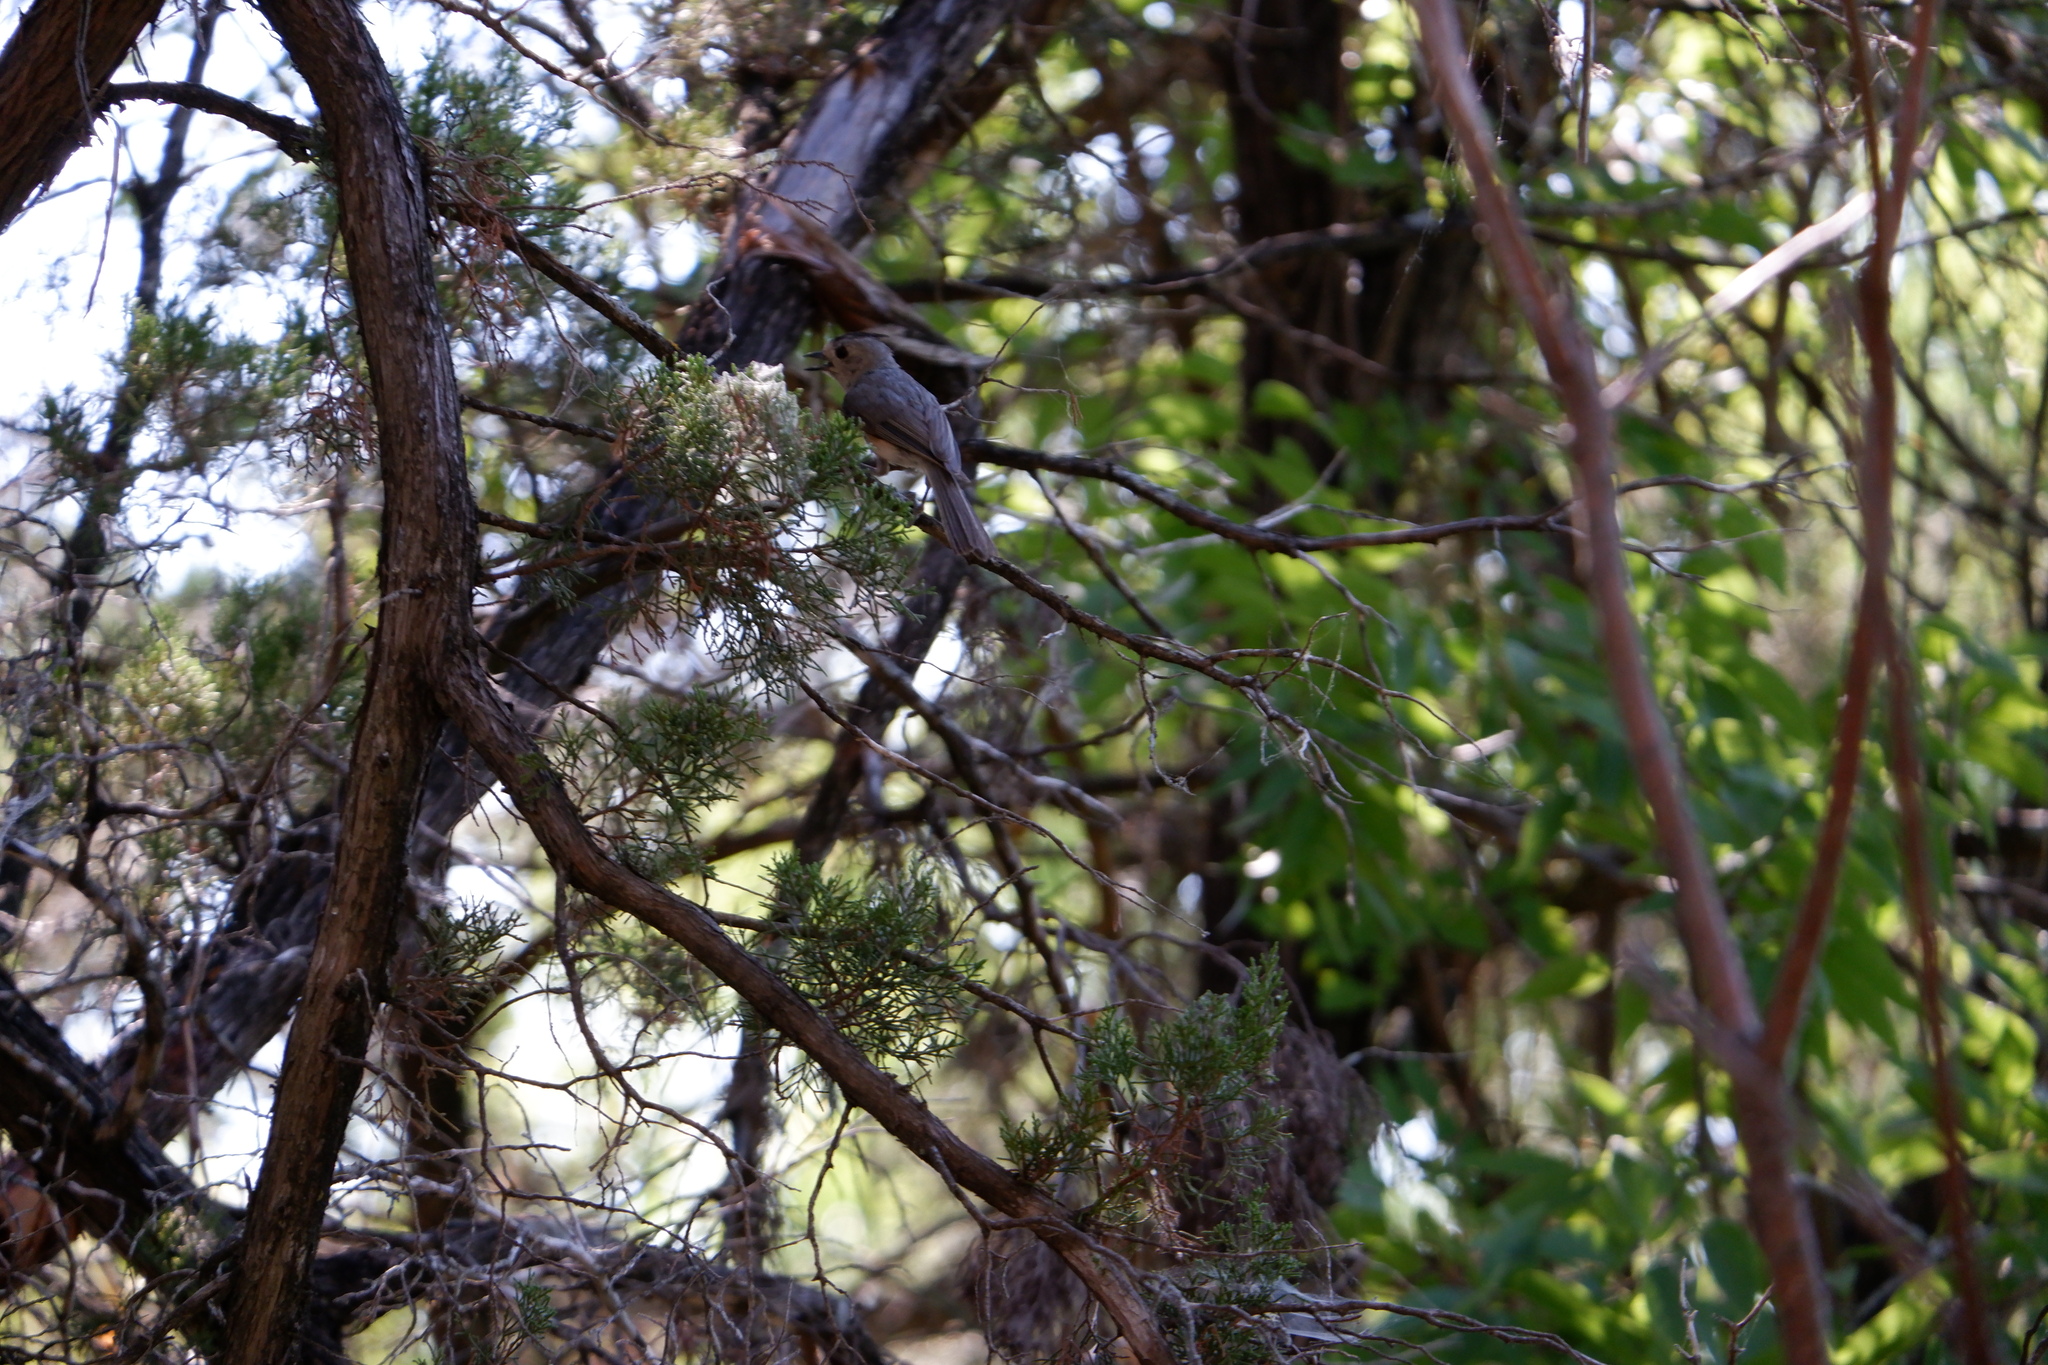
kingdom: Animalia
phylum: Chordata
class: Aves
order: Passeriformes
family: Paridae
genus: Baeolophus
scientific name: Baeolophus atricristatus
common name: Black-crested titmouse
